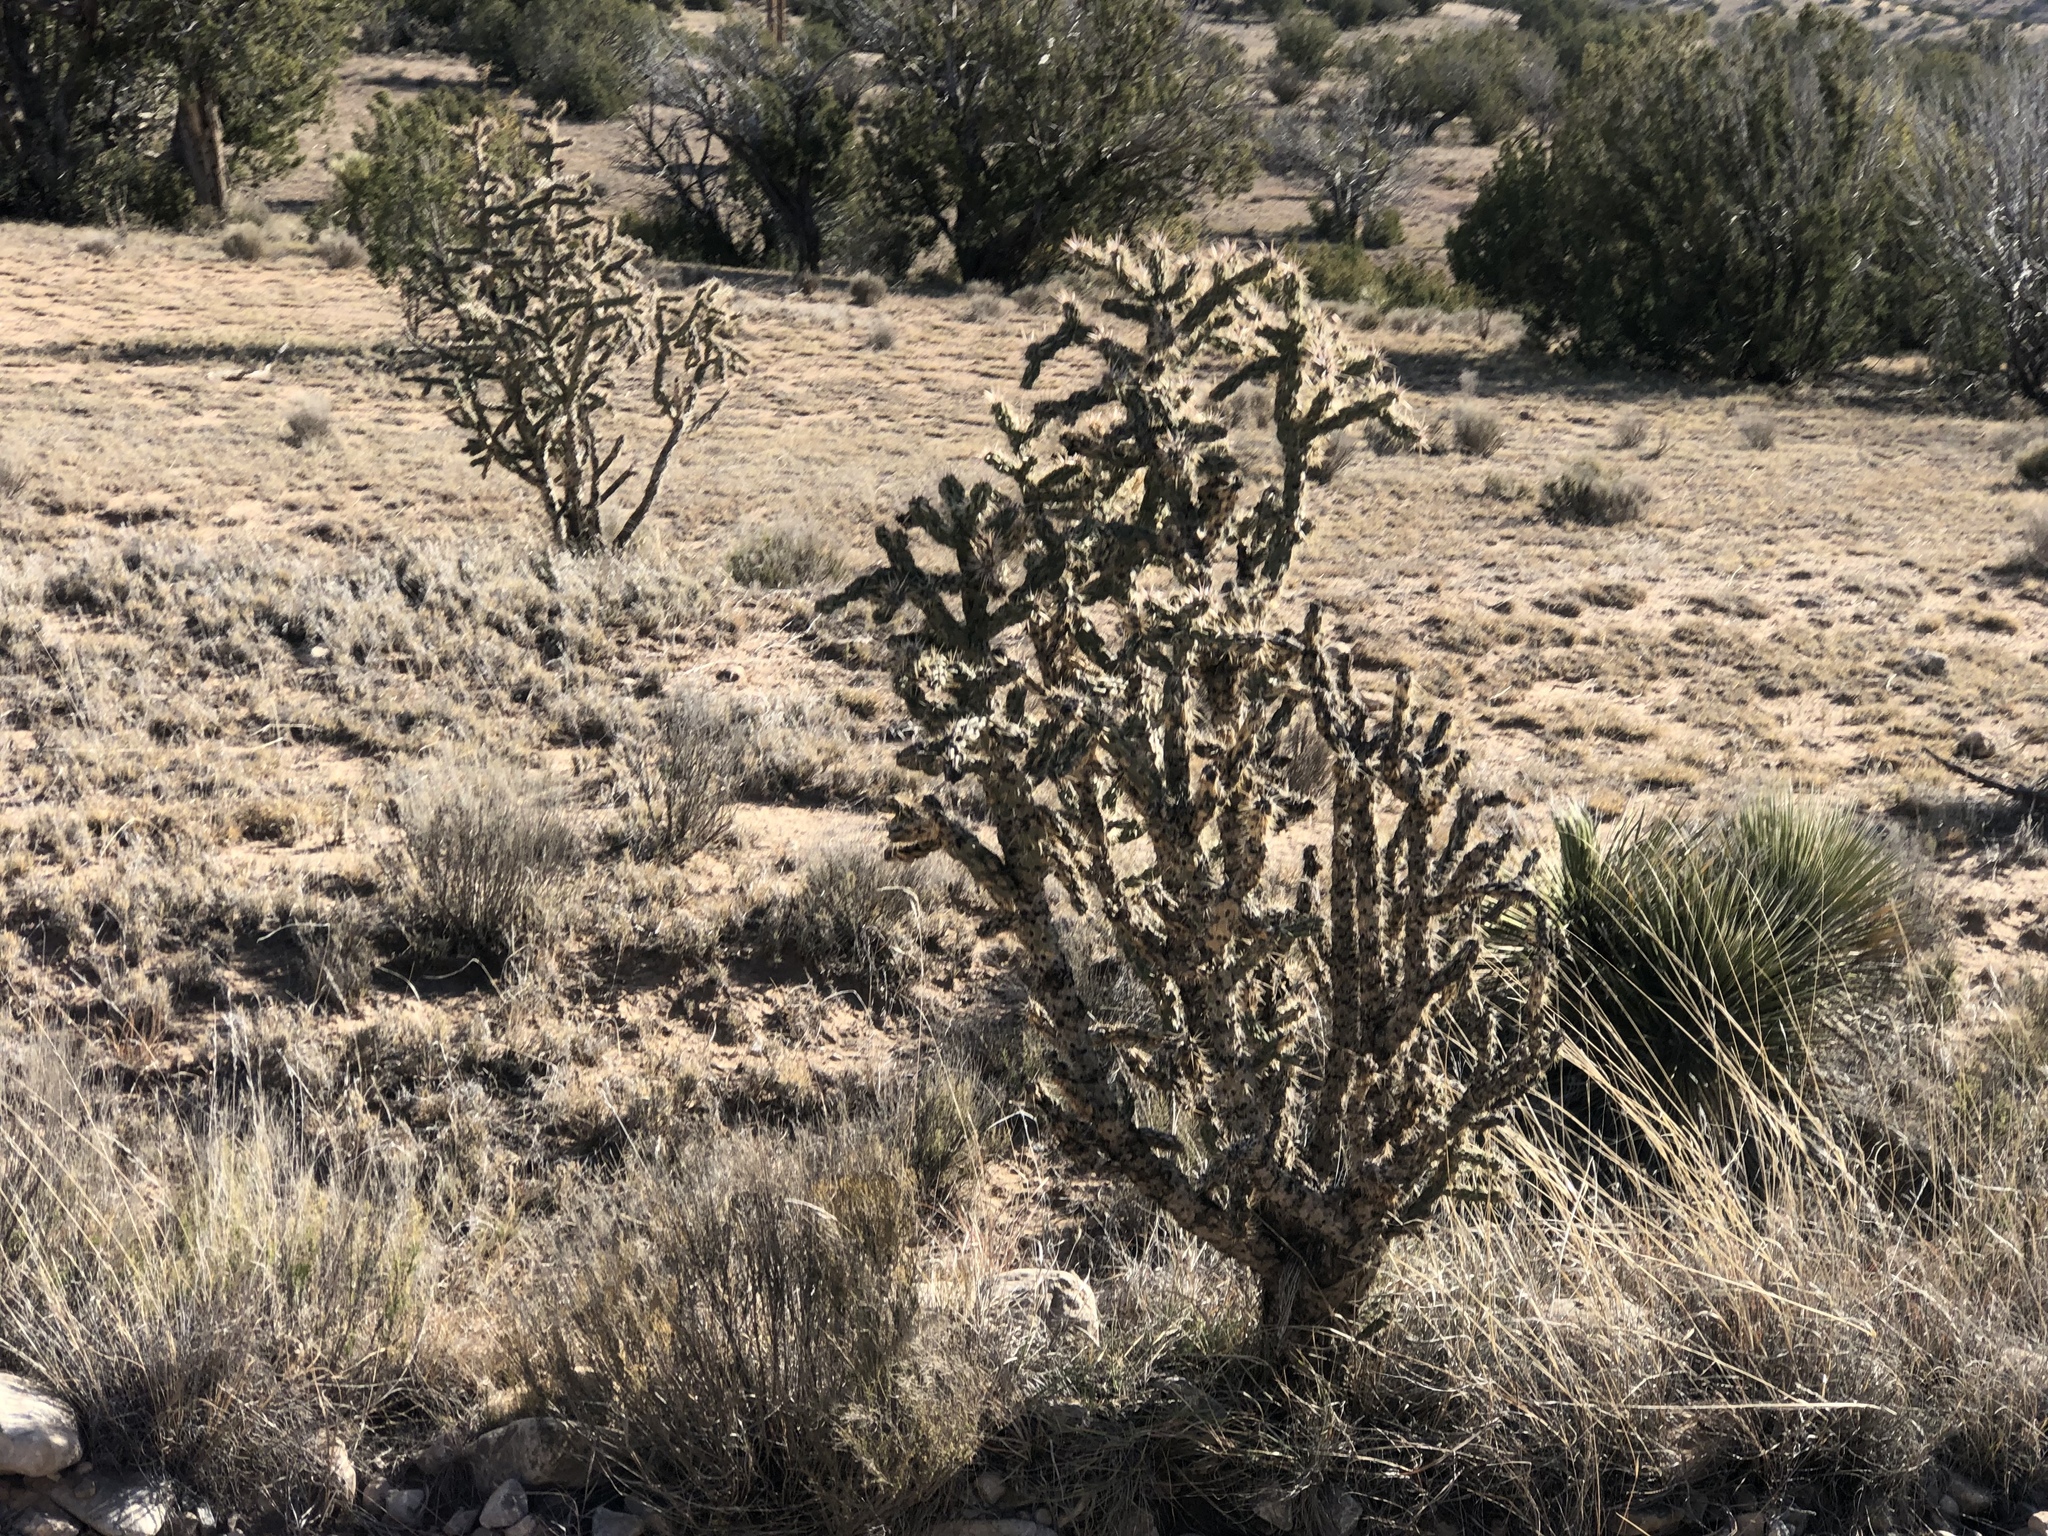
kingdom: Plantae
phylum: Tracheophyta
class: Magnoliopsida
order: Caryophyllales
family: Cactaceae
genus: Cylindropuntia
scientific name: Cylindropuntia imbricata
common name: Candelabrum cactus
